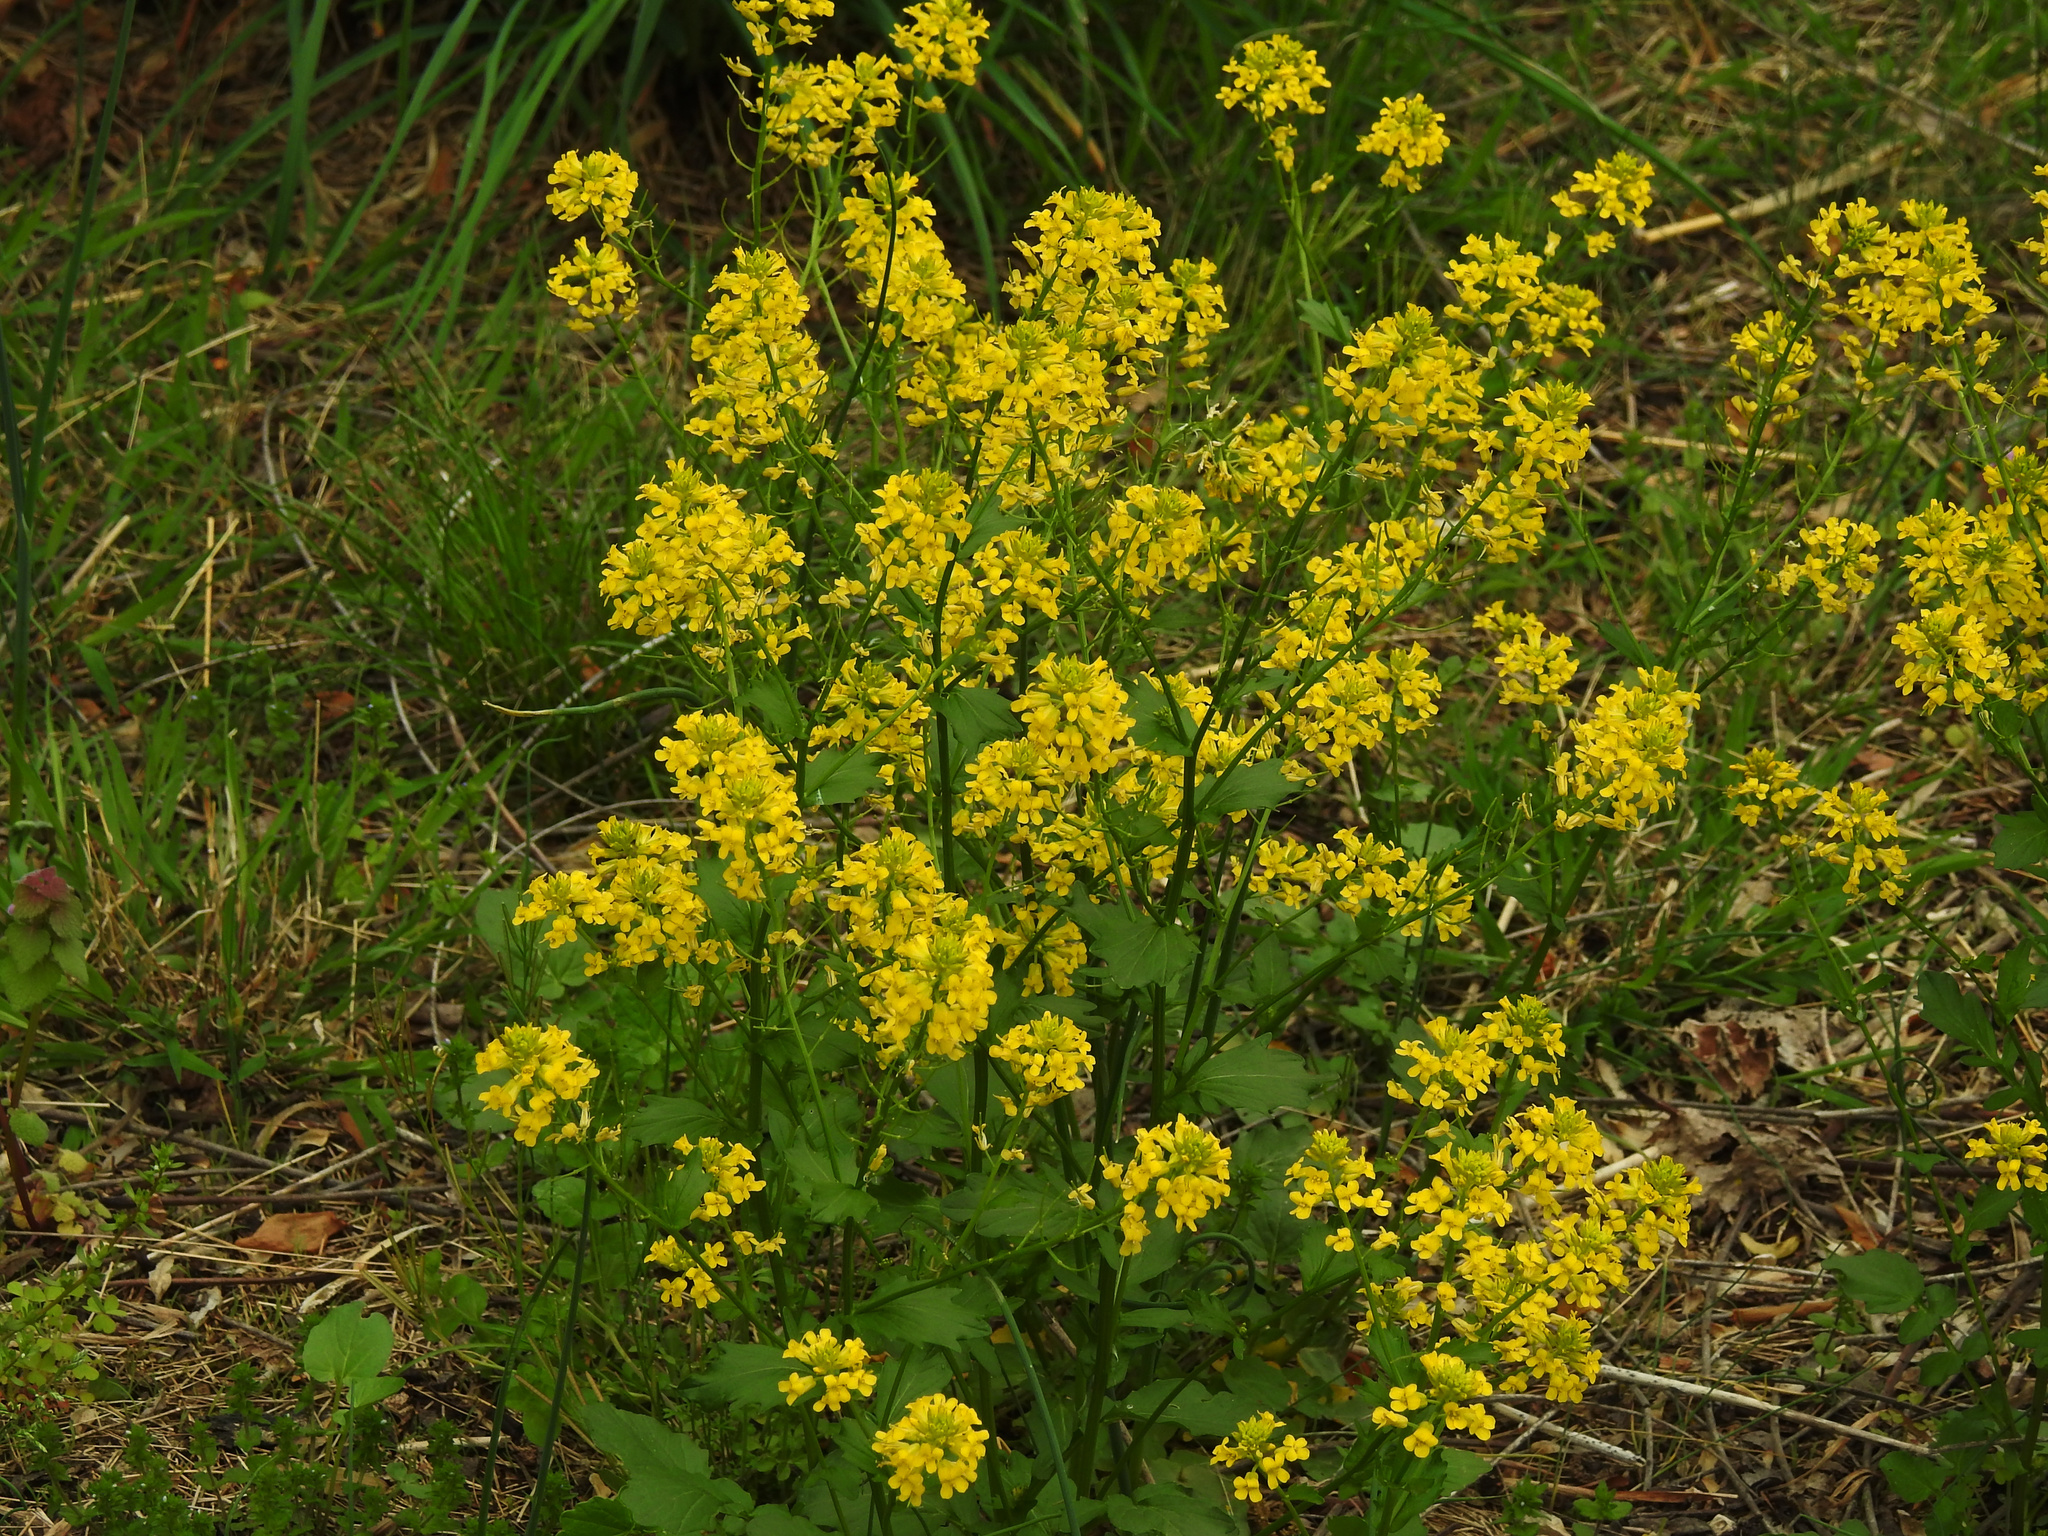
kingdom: Plantae
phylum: Tracheophyta
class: Magnoliopsida
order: Brassicales
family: Brassicaceae
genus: Barbarea
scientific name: Barbarea vulgaris
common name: Cressy-greens
